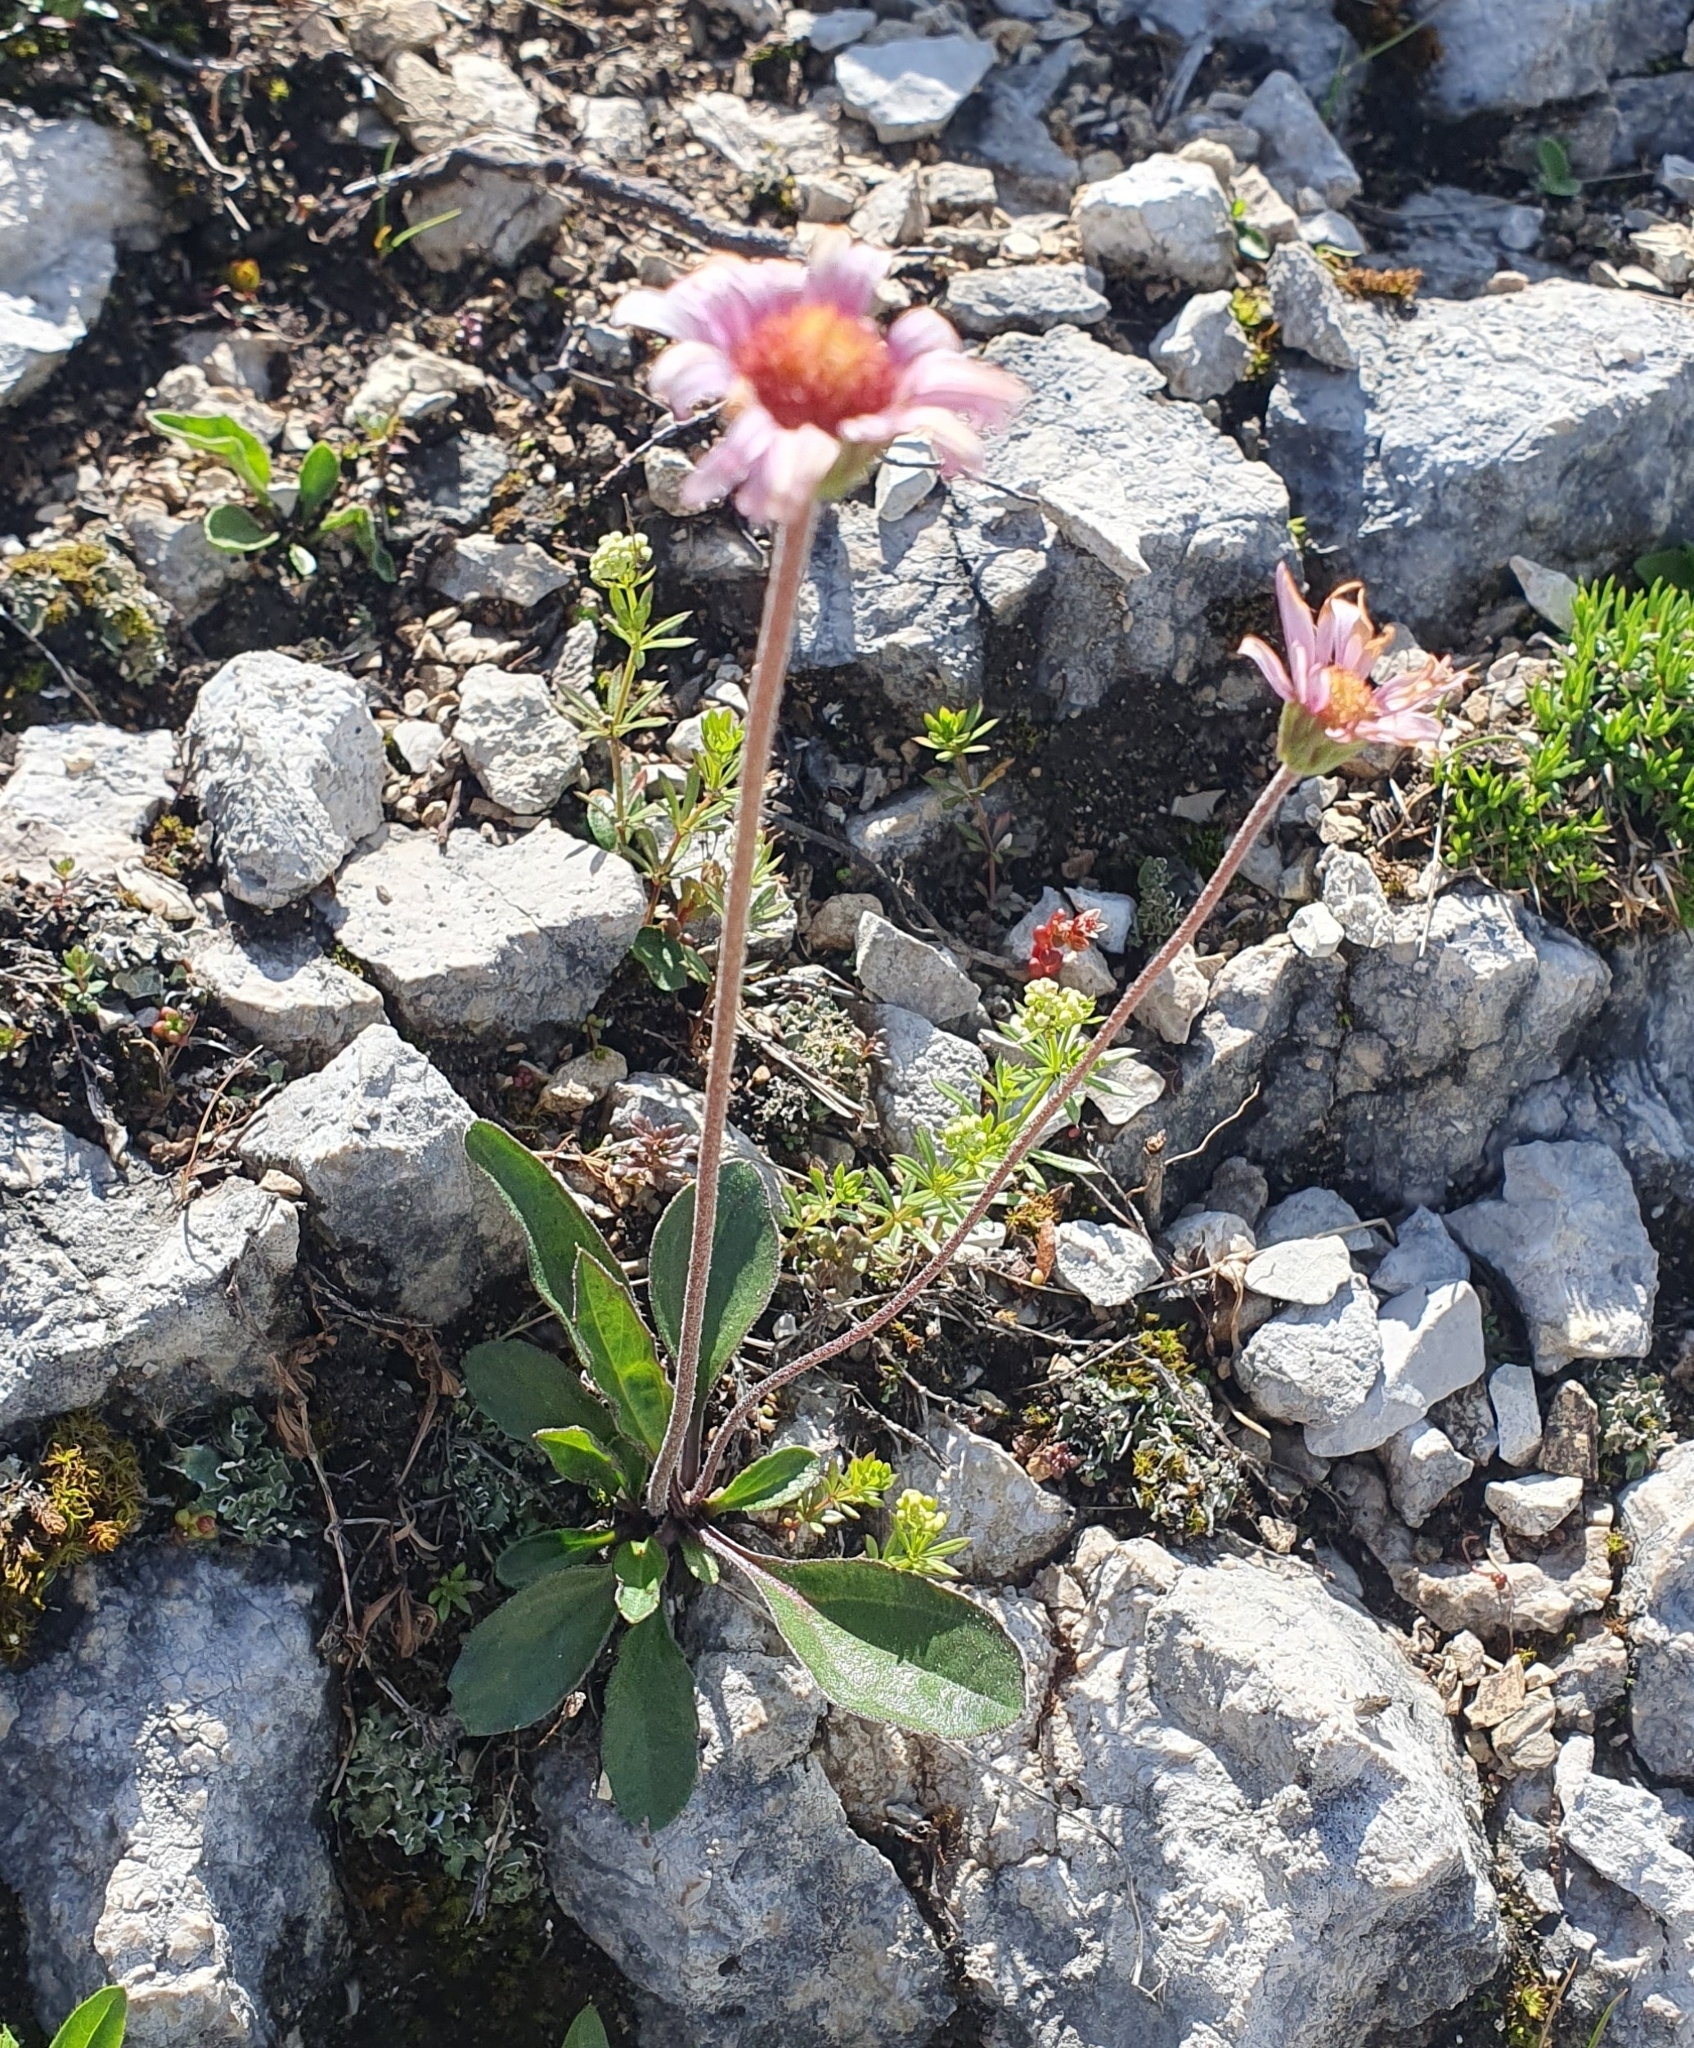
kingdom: Plantae
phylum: Tracheophyta
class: Magnoliopsida
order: Asterales
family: Asteraceae
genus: Aster
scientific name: Aster alpinus
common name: Alpine aster
